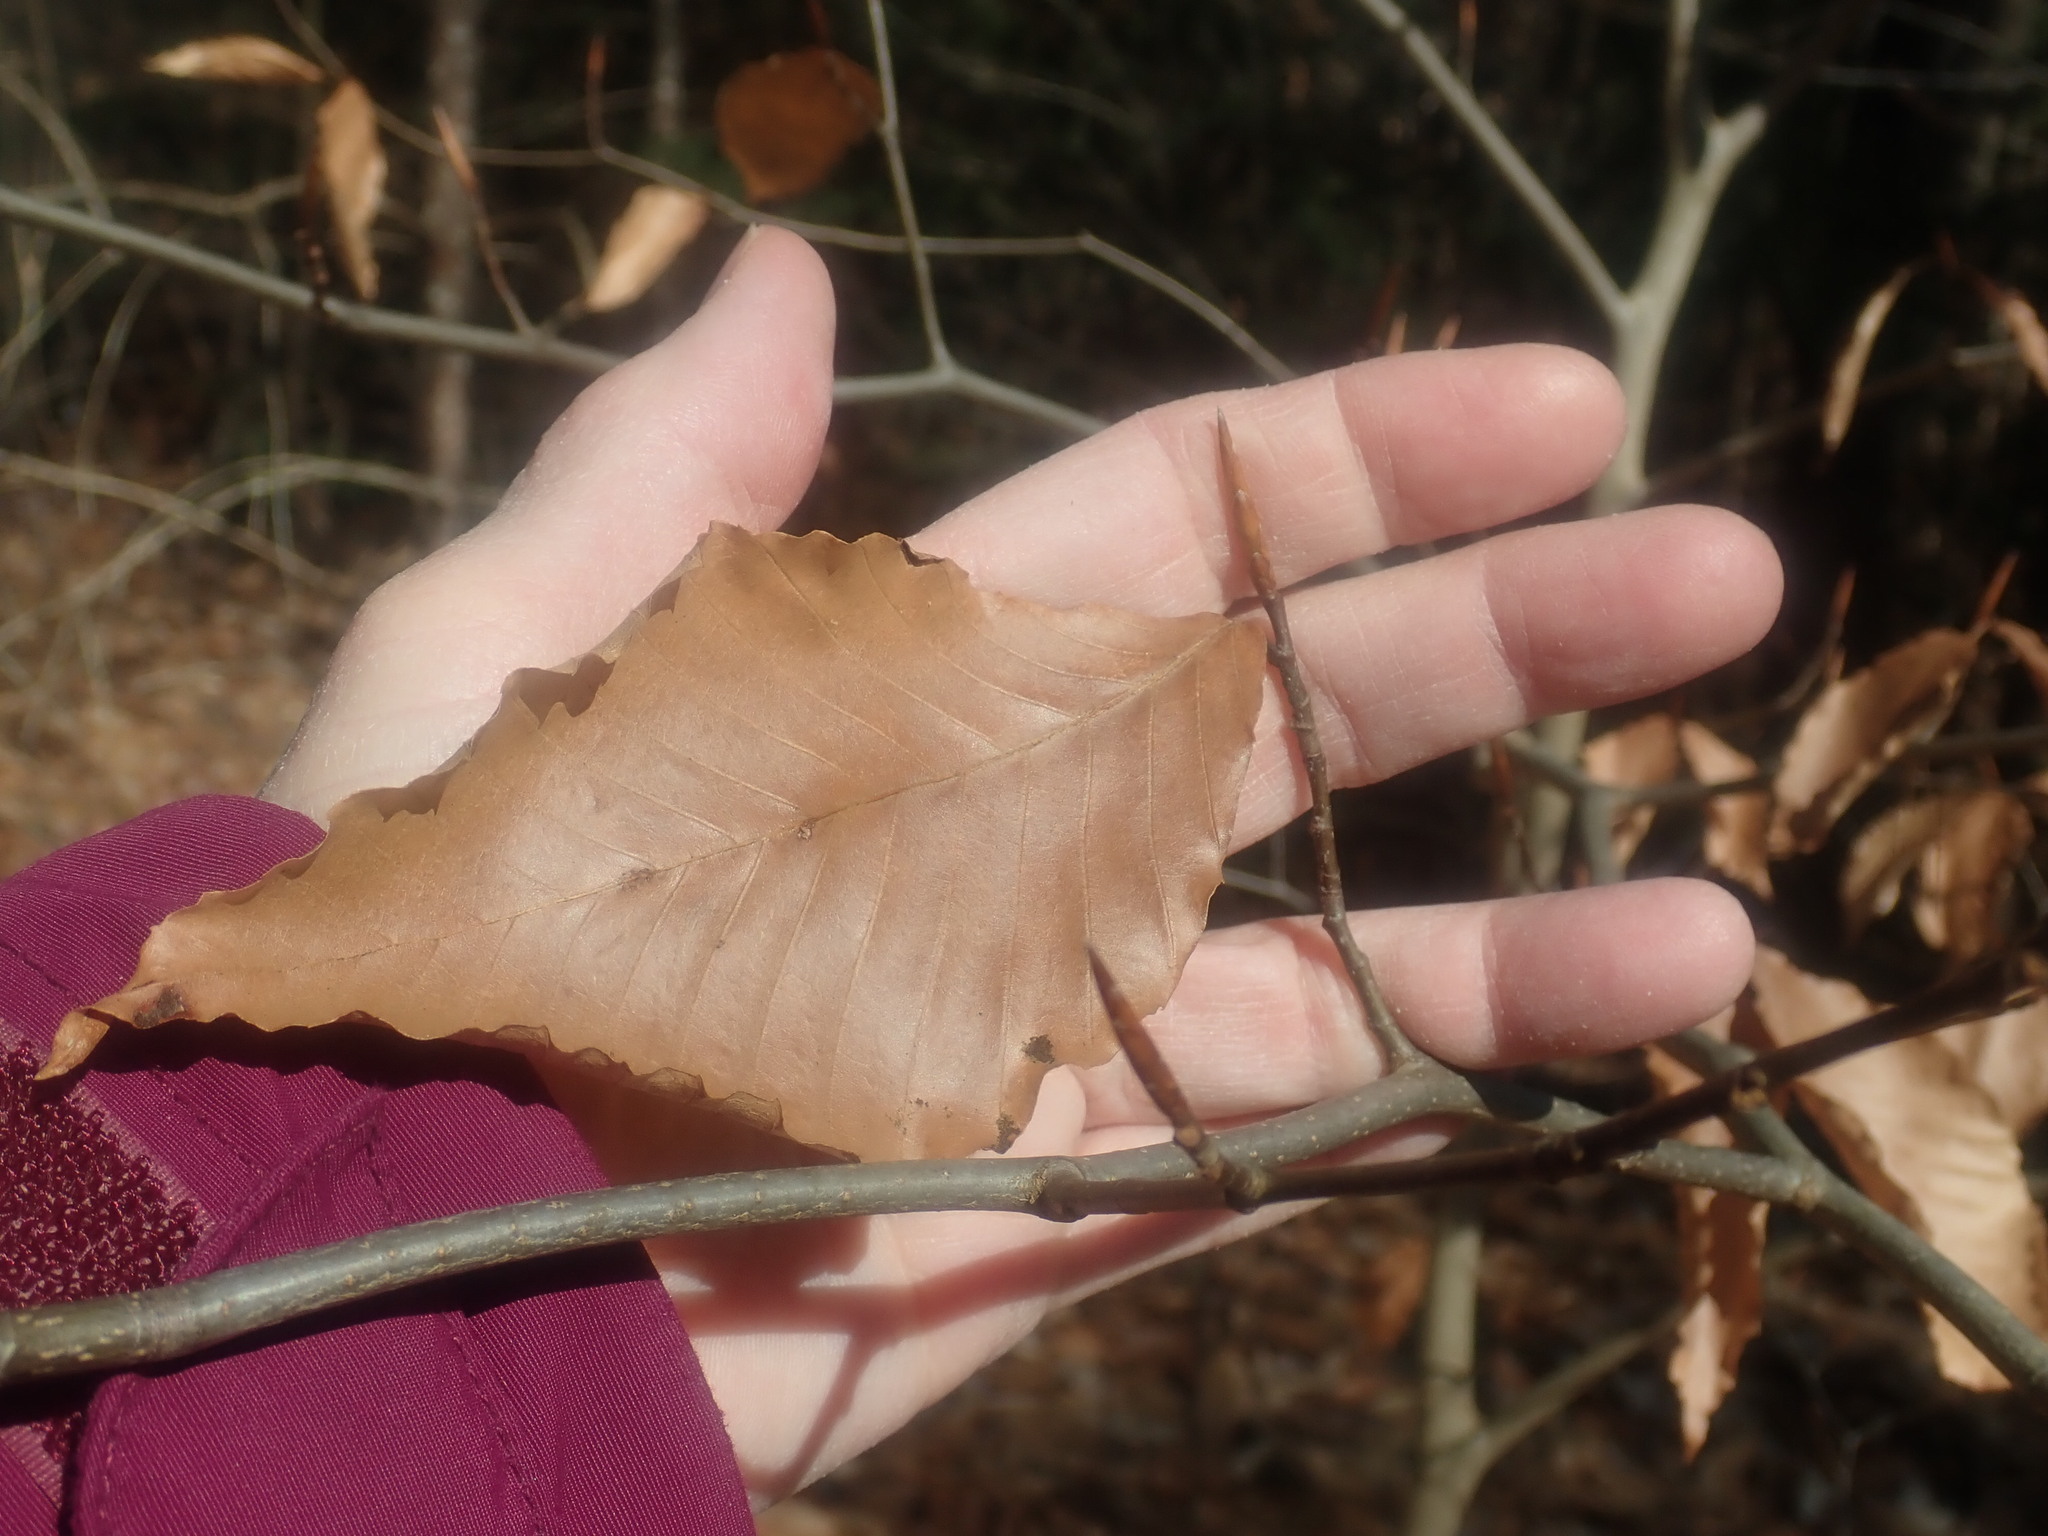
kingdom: Plantae
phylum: Tracheophyta
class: Magnoliopsida
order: Fagales
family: Fagaceae
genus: Fagus
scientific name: Fagus grandifolia
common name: American beech
